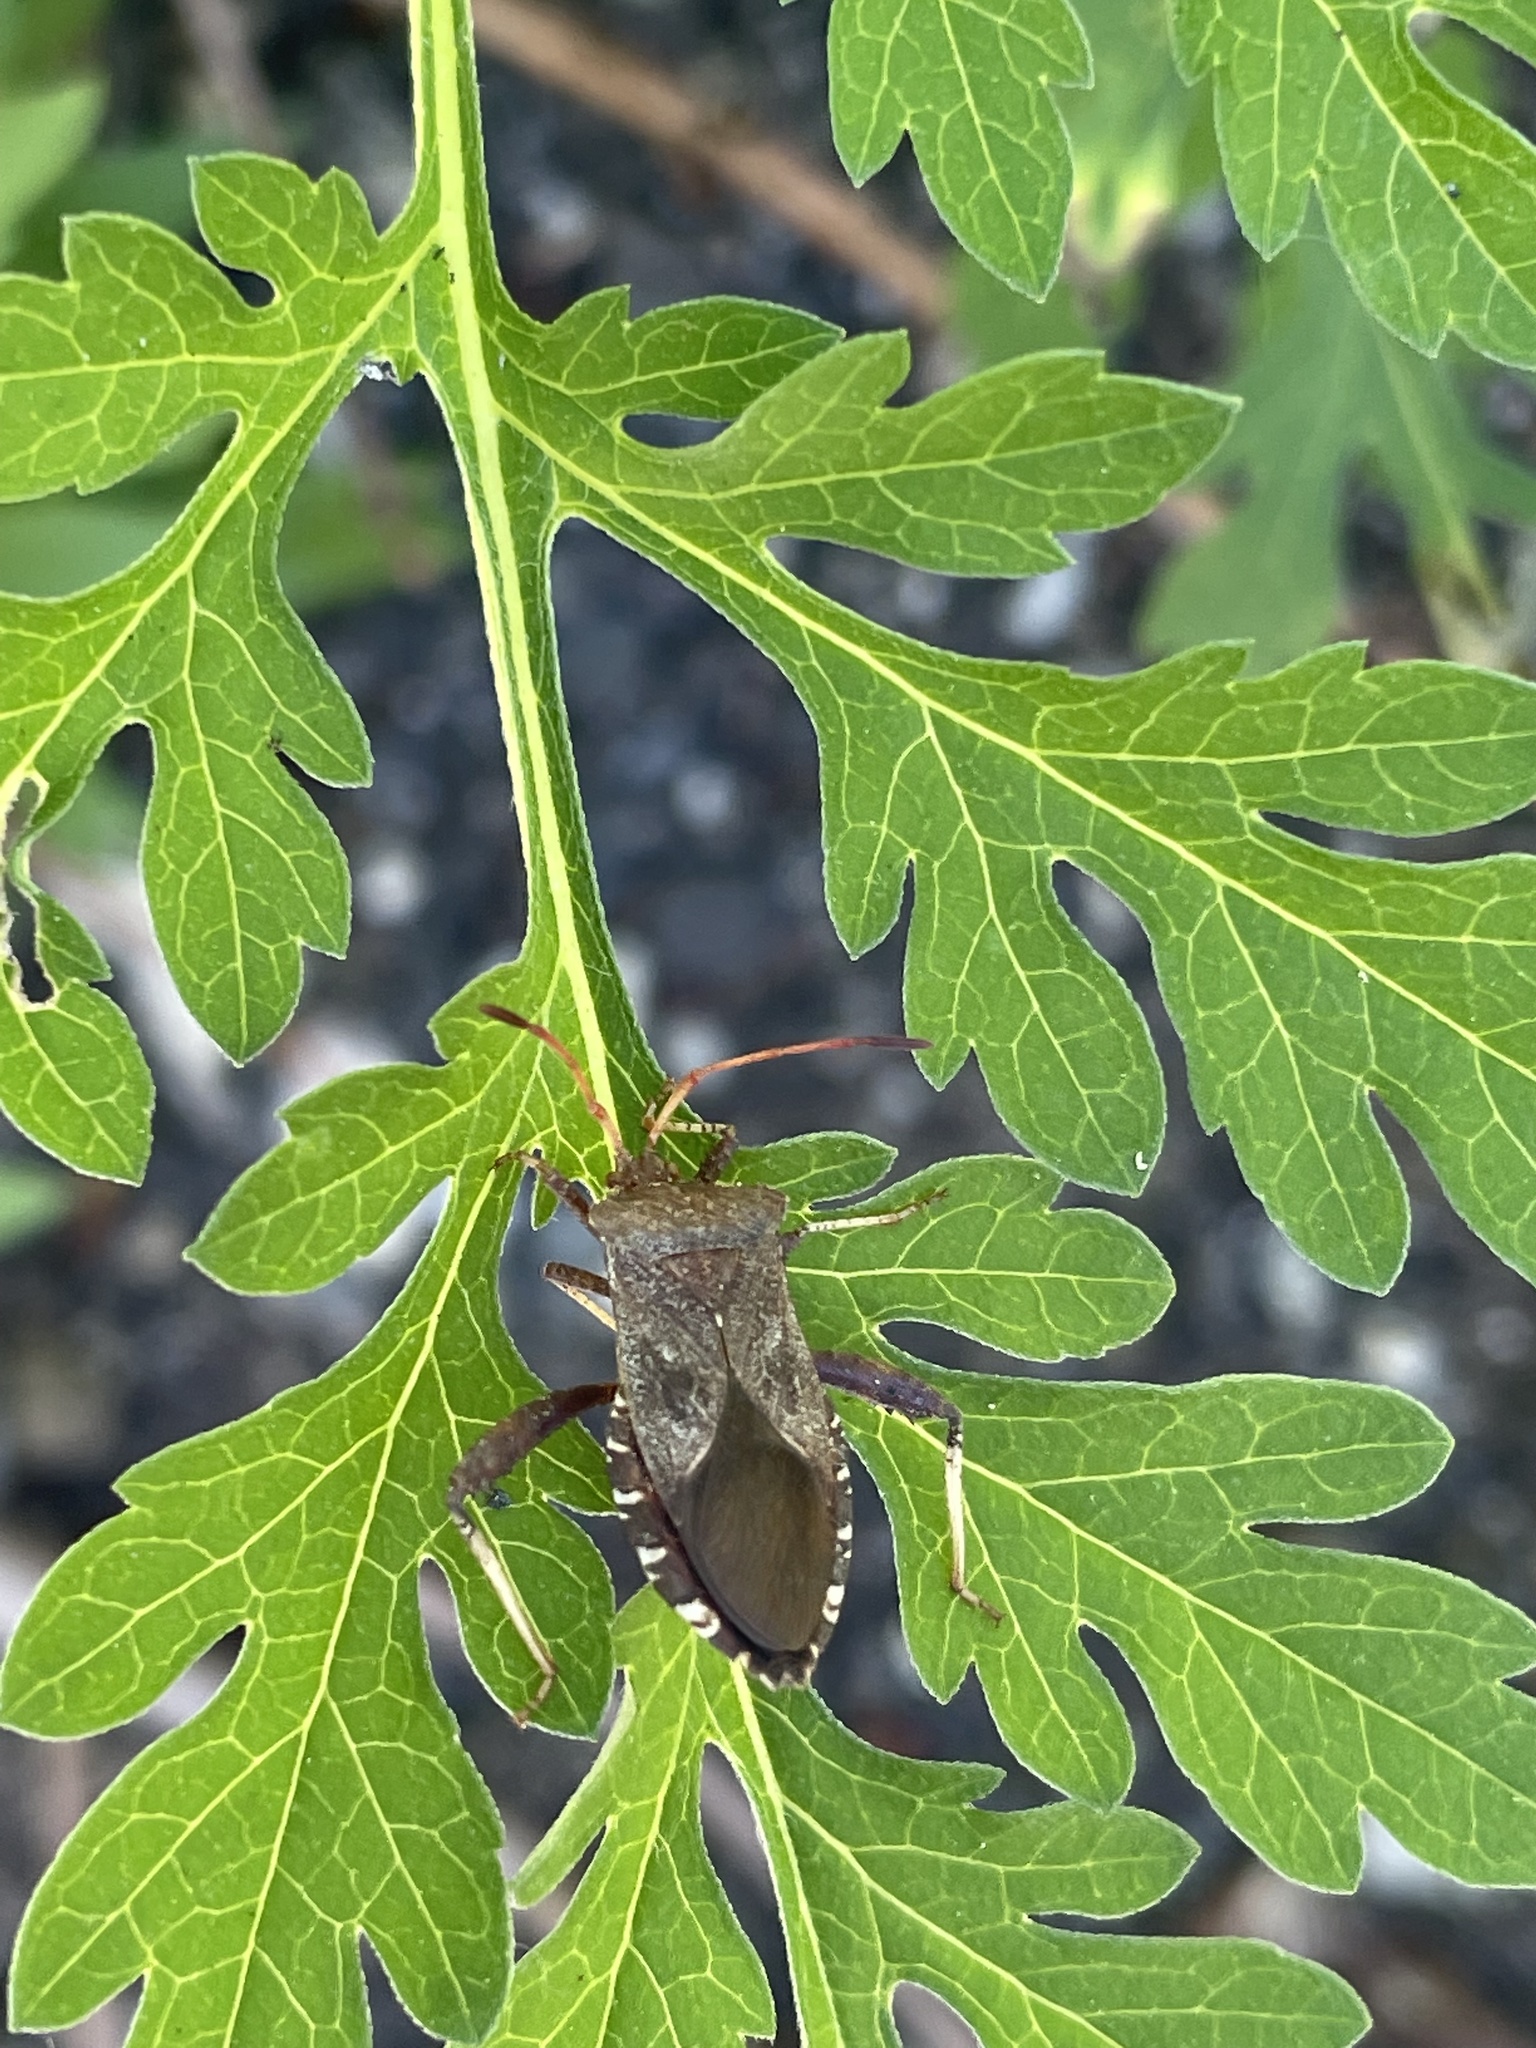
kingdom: Animalia
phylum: Arthropoda
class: Insecta
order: Hemiptera
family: Coreidae
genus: Euthochtha
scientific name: Euthochtha galeator
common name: Helmeted squash bug
